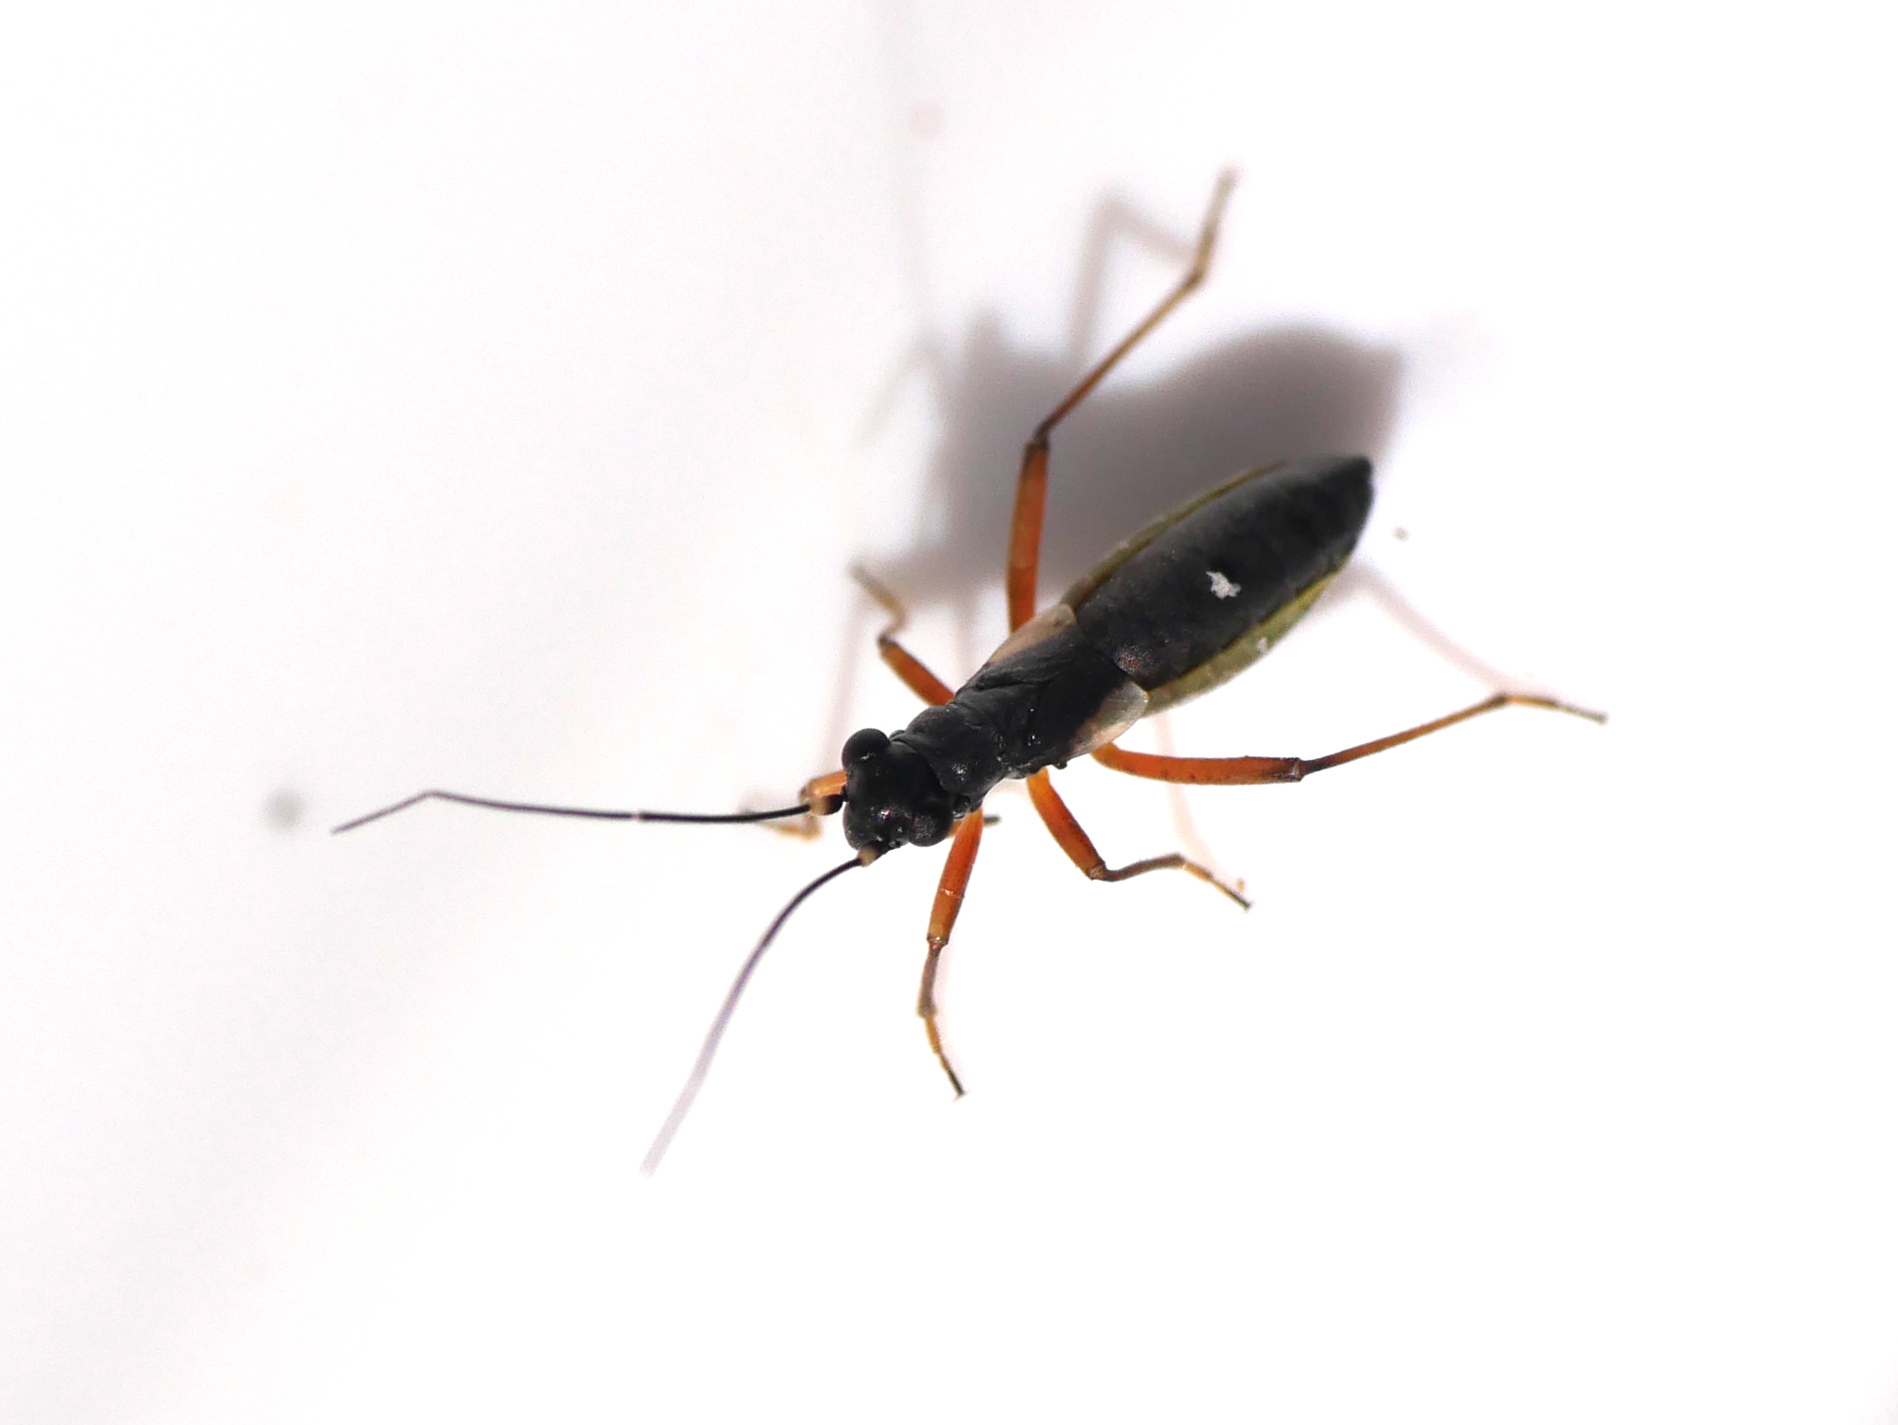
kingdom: Animalia
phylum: Arthropoda
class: Insecta
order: Hemiptera
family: Miridae
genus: Pithanus
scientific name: Pithanus maerkelii
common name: Plant bug
